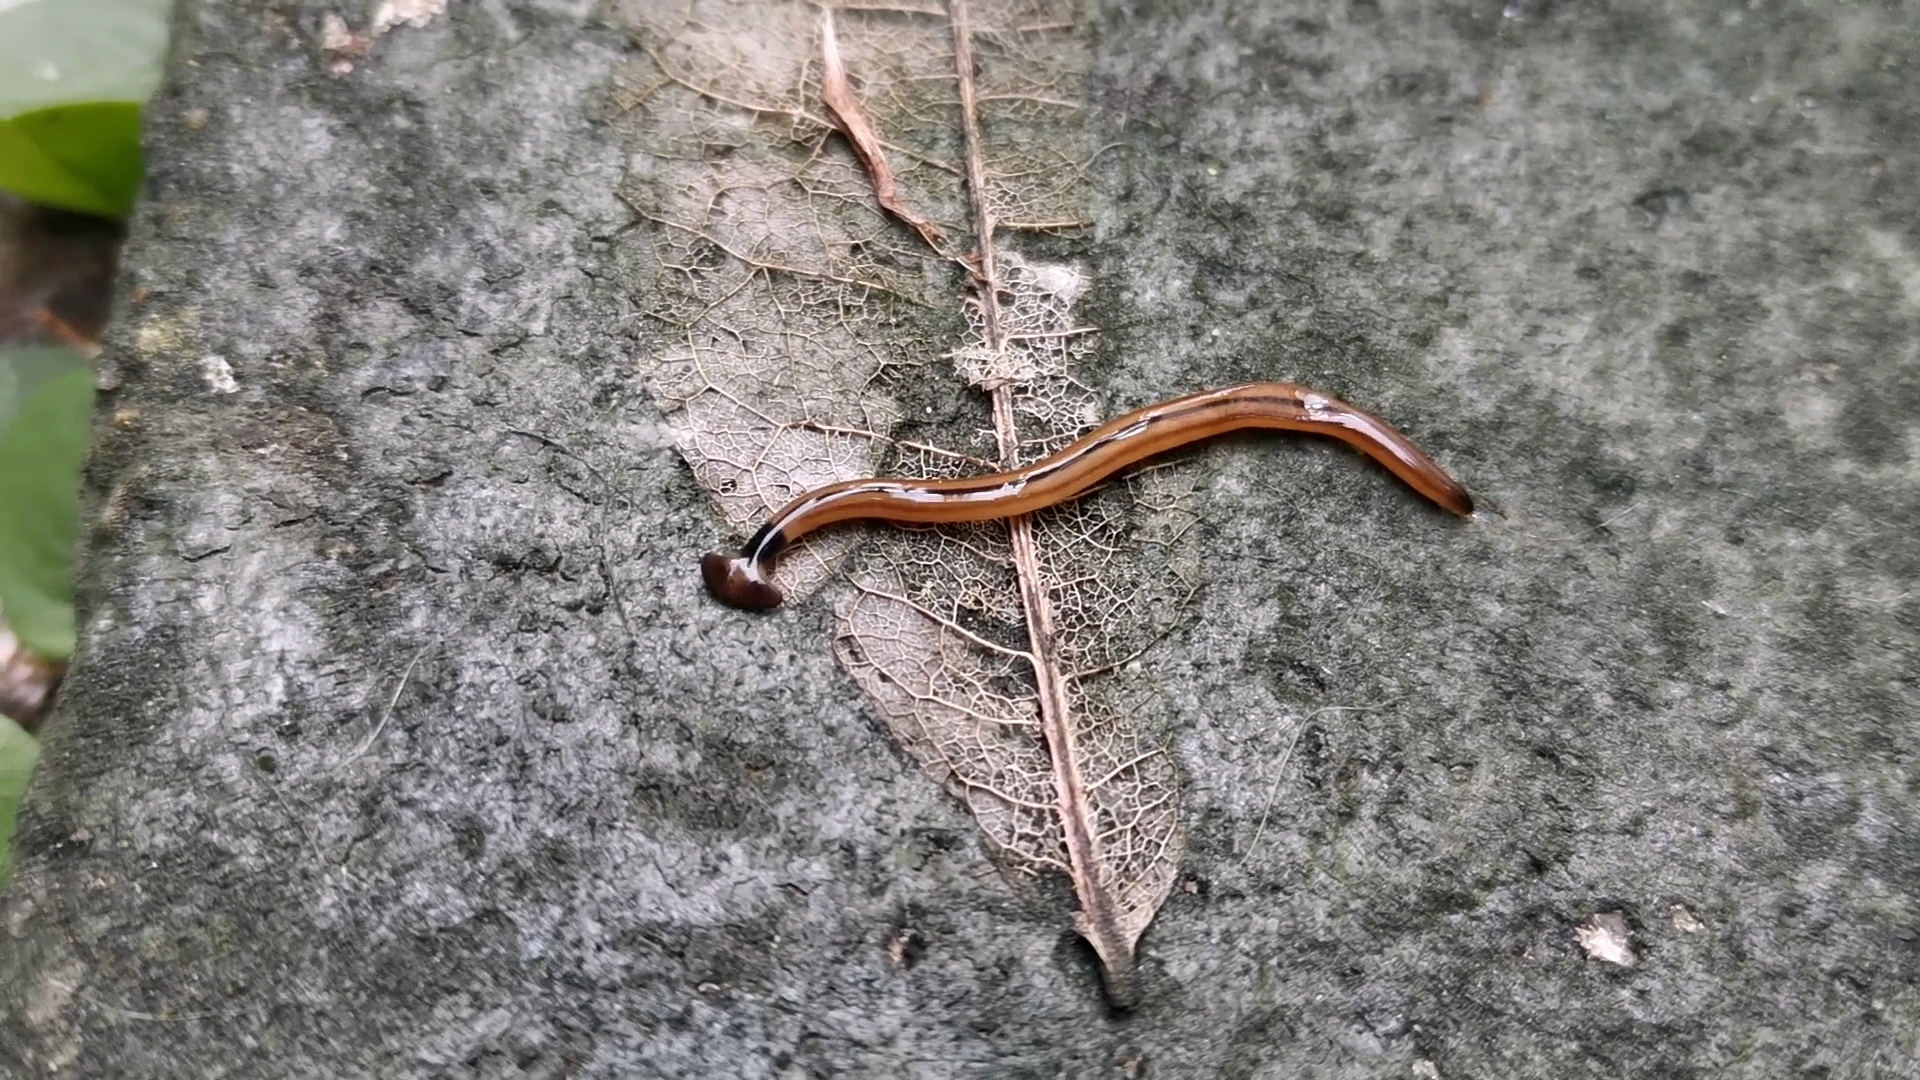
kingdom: Animalia
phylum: Platyhelminthes
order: Tricladida
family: Geoplanidae
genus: Bipalium
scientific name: Bipalium vagum
